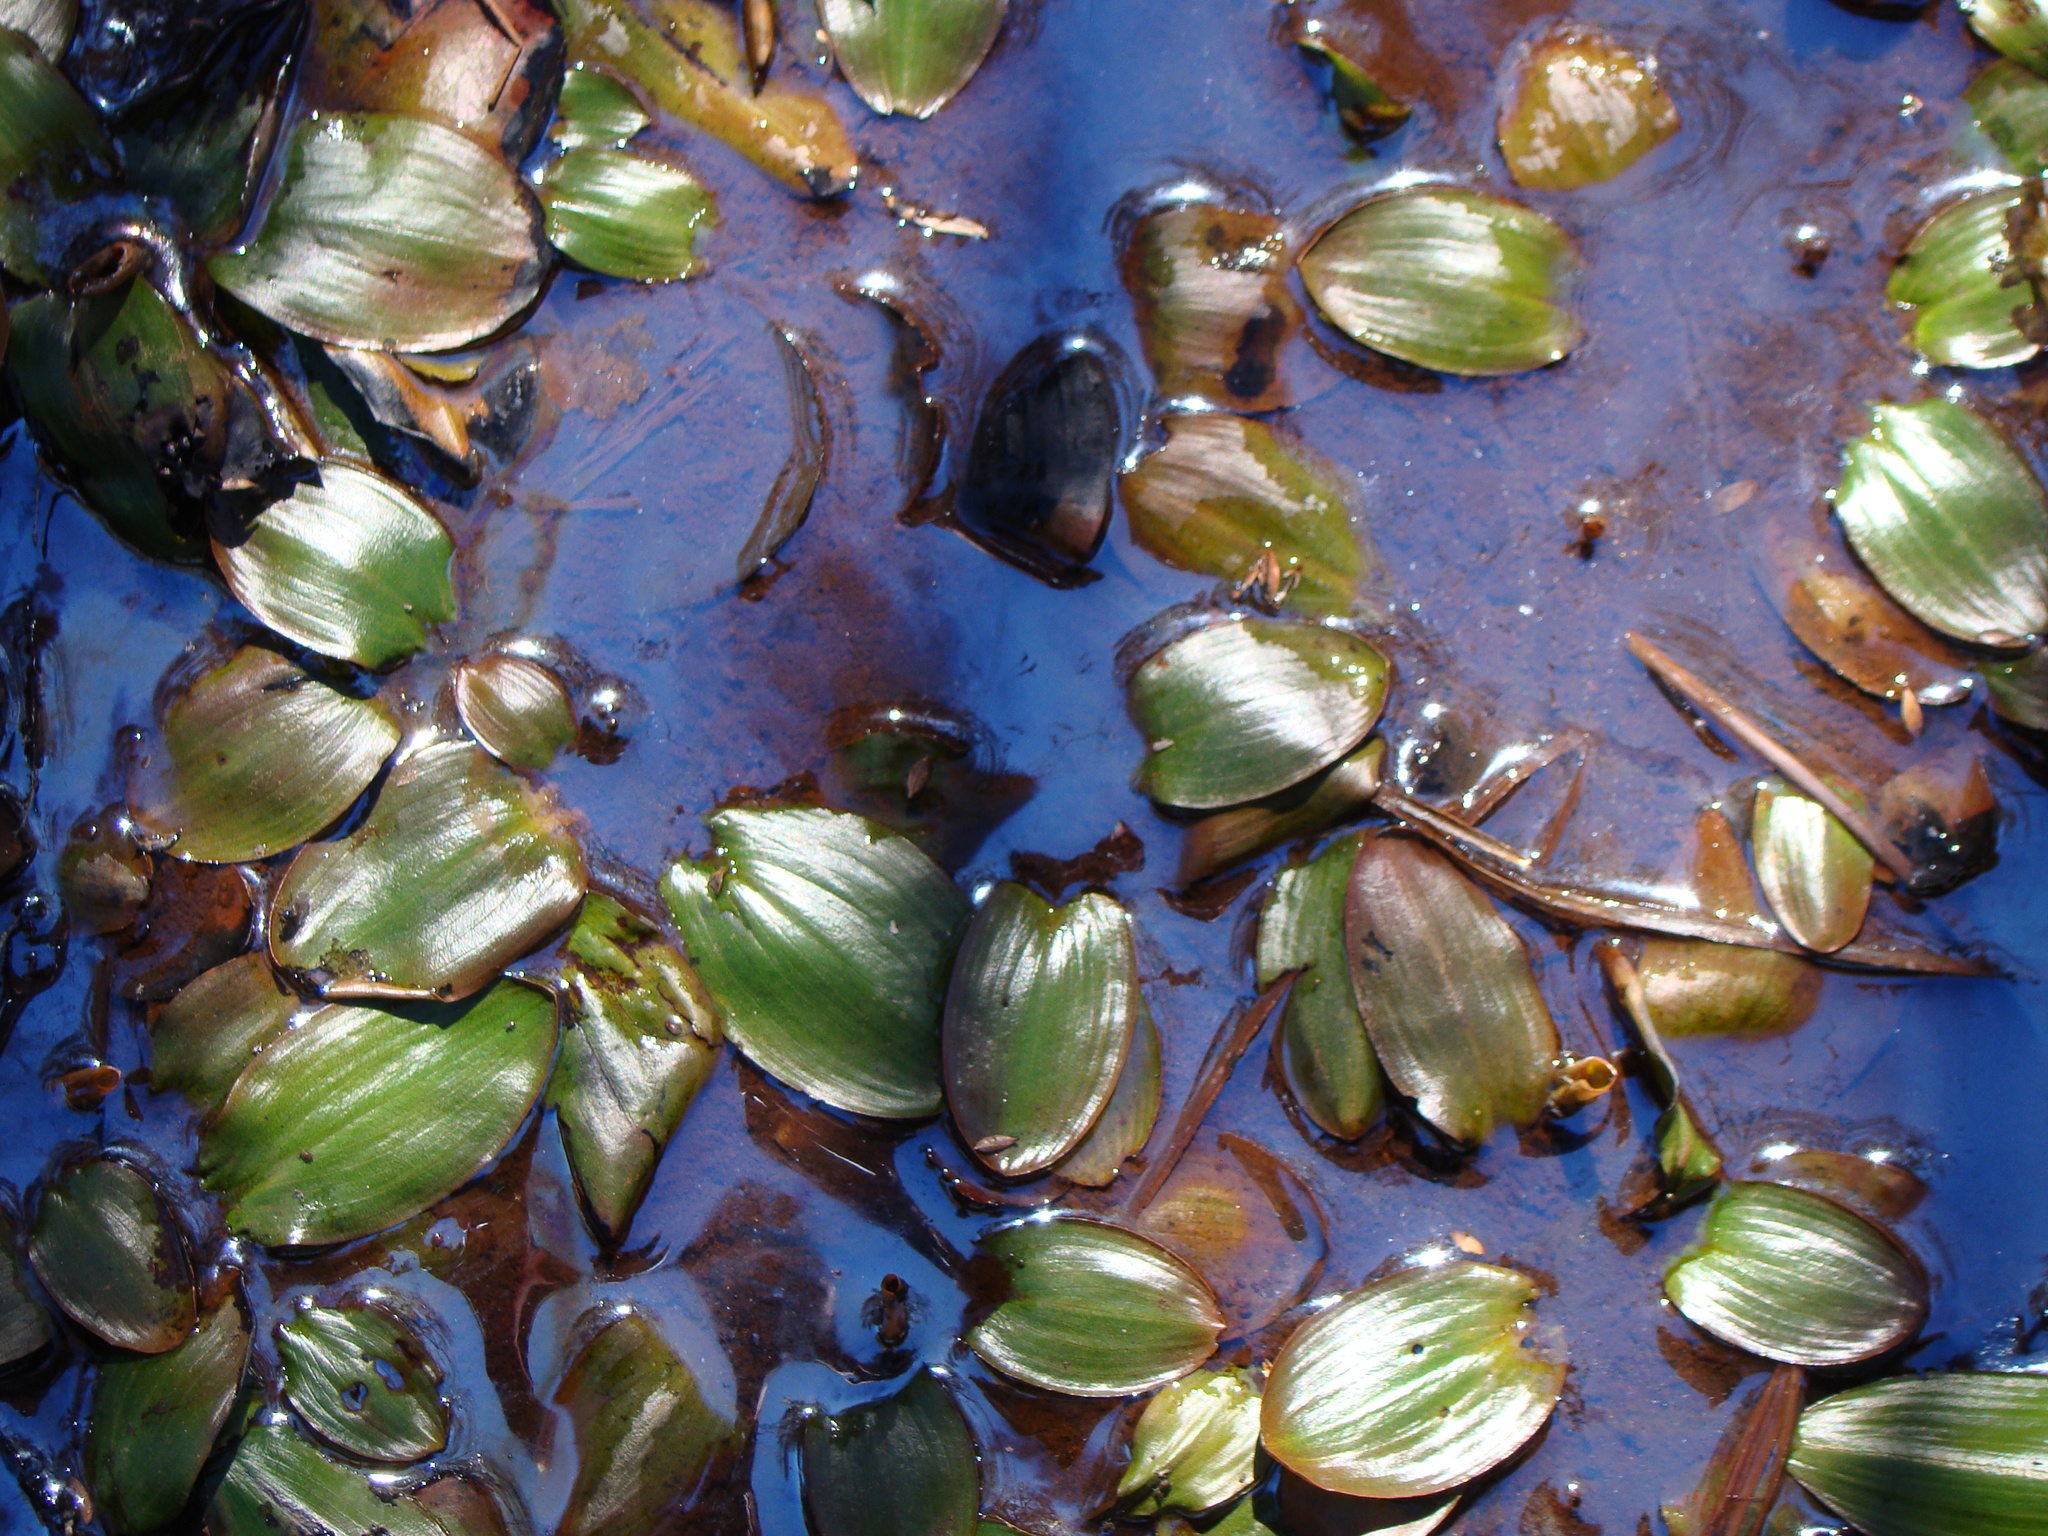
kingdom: Plantae
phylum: Tracheophyta
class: Liliopsida
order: Alismatales
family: Potamogetonaceae
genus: Potamogeton
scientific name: Potamogeton suboblongus
